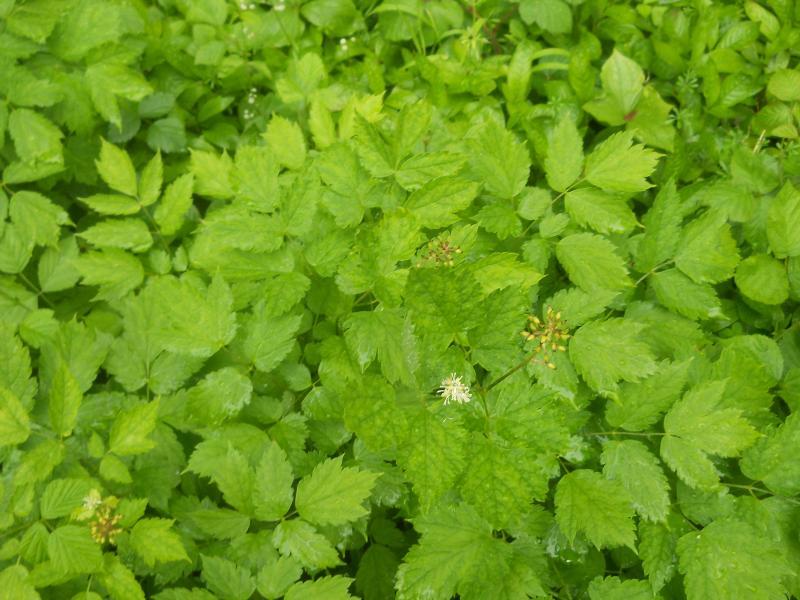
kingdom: Plantae
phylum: Tracheophyta
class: Magnoliopsida
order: Ranunculales
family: Ranunculaceae
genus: Actaea
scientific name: Actaea spicata
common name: Baneberry
